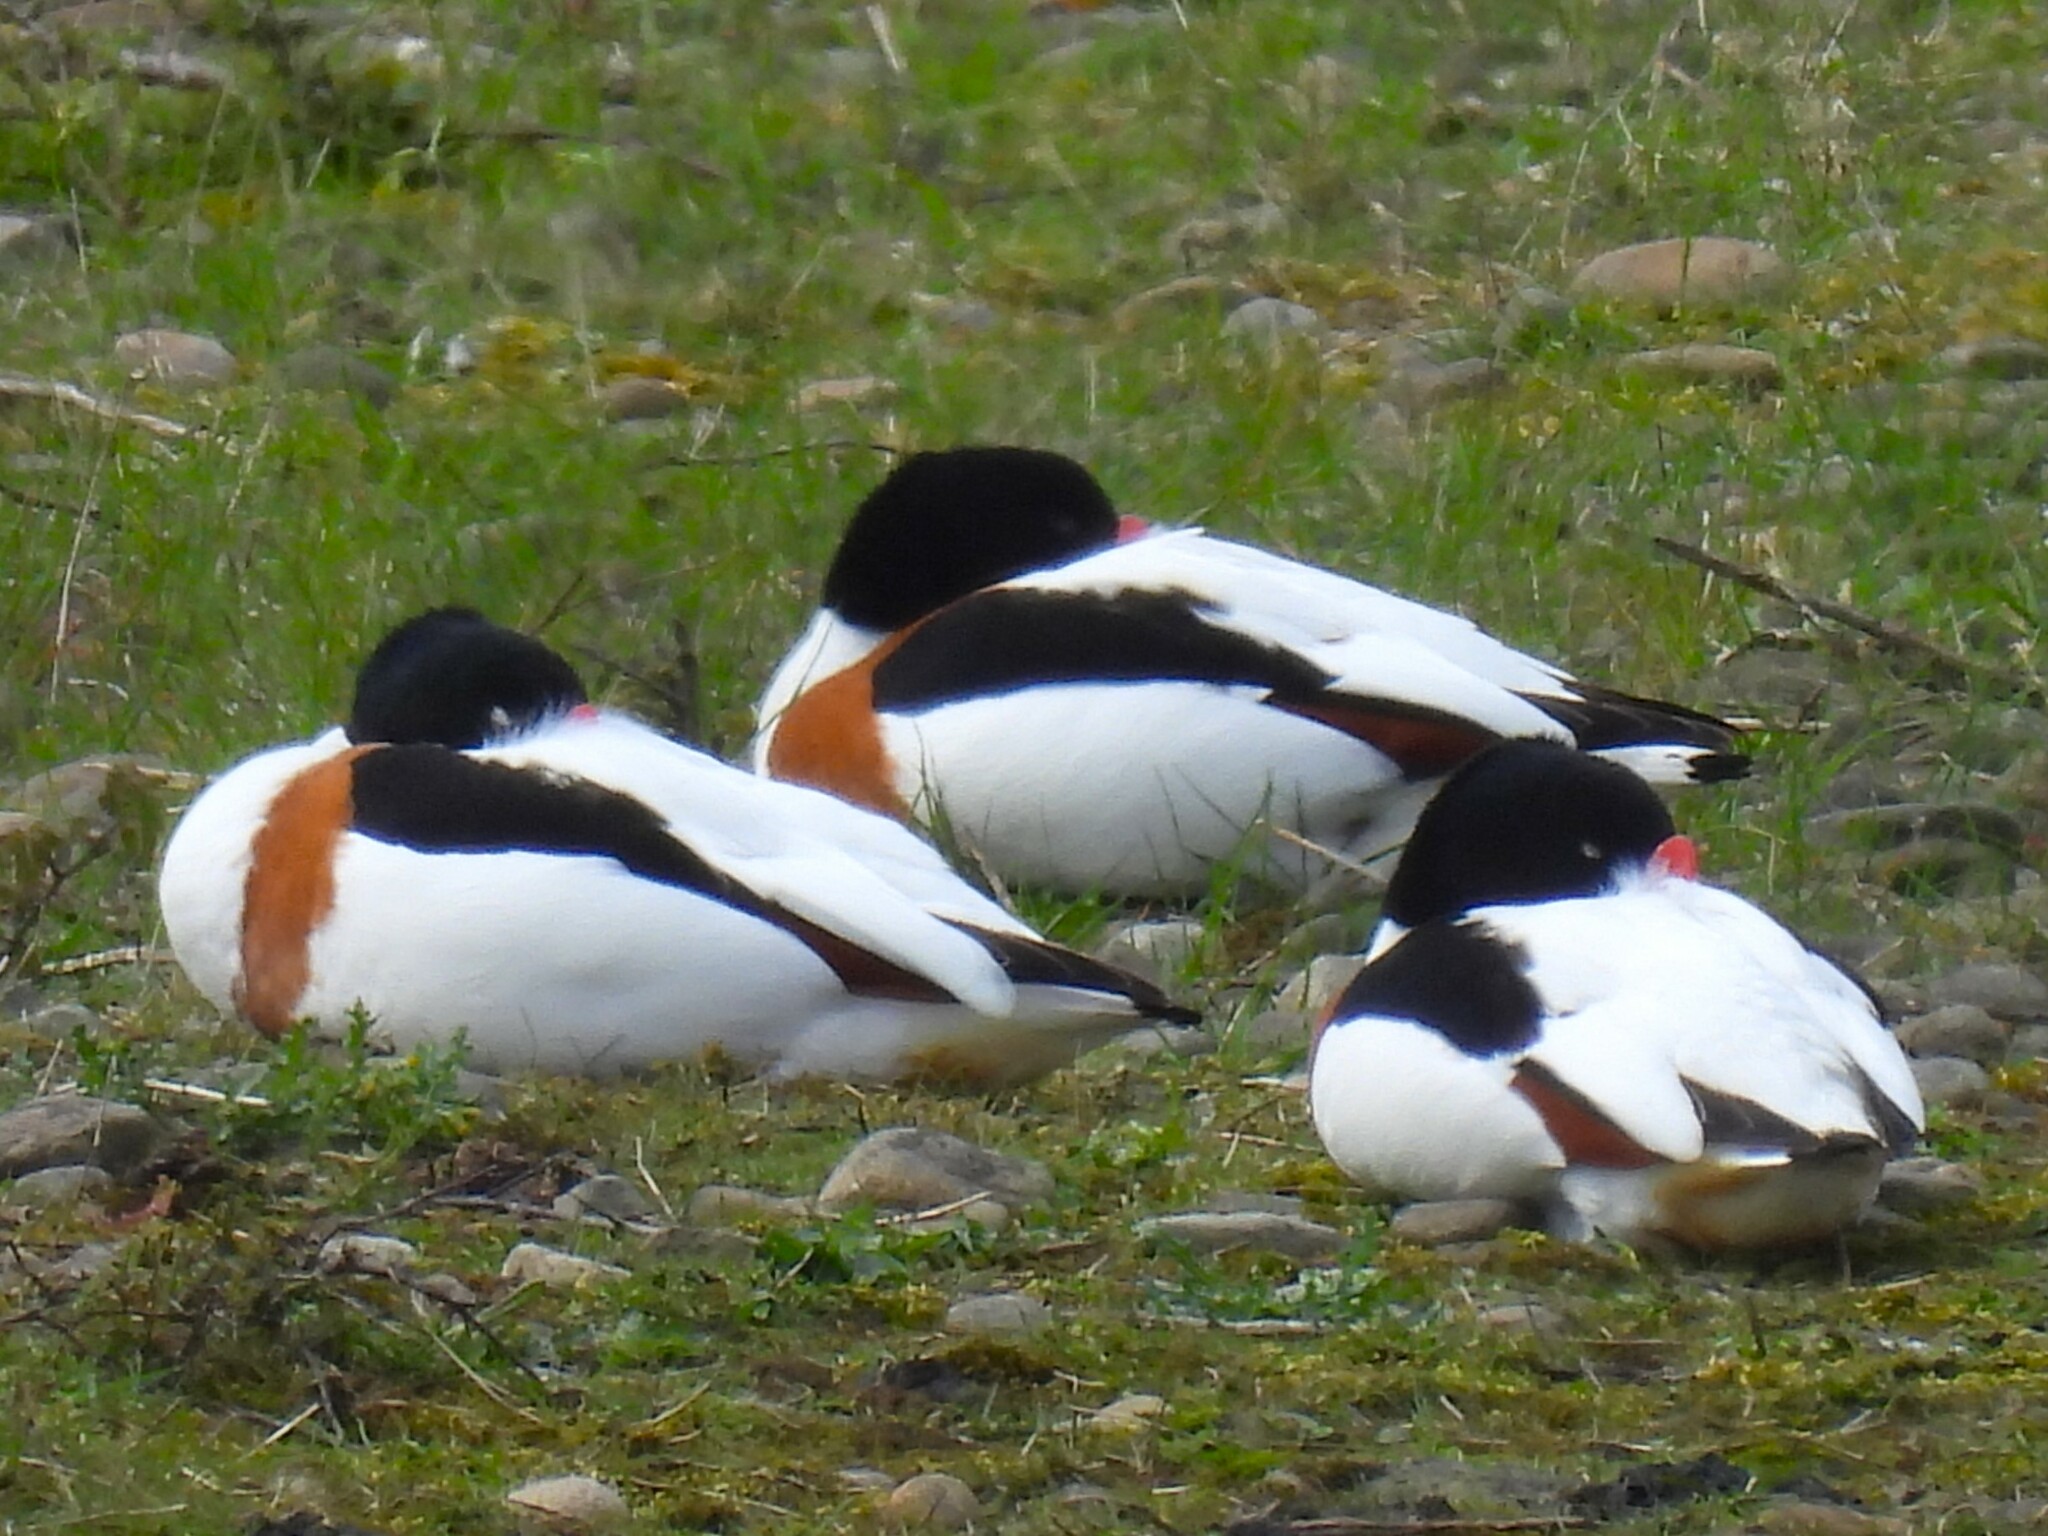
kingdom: Animalia
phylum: Chordata
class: Aves
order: Anseriformes
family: Anatidae
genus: Tadorna
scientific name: Tadorna tadorna
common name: Common shelduck
